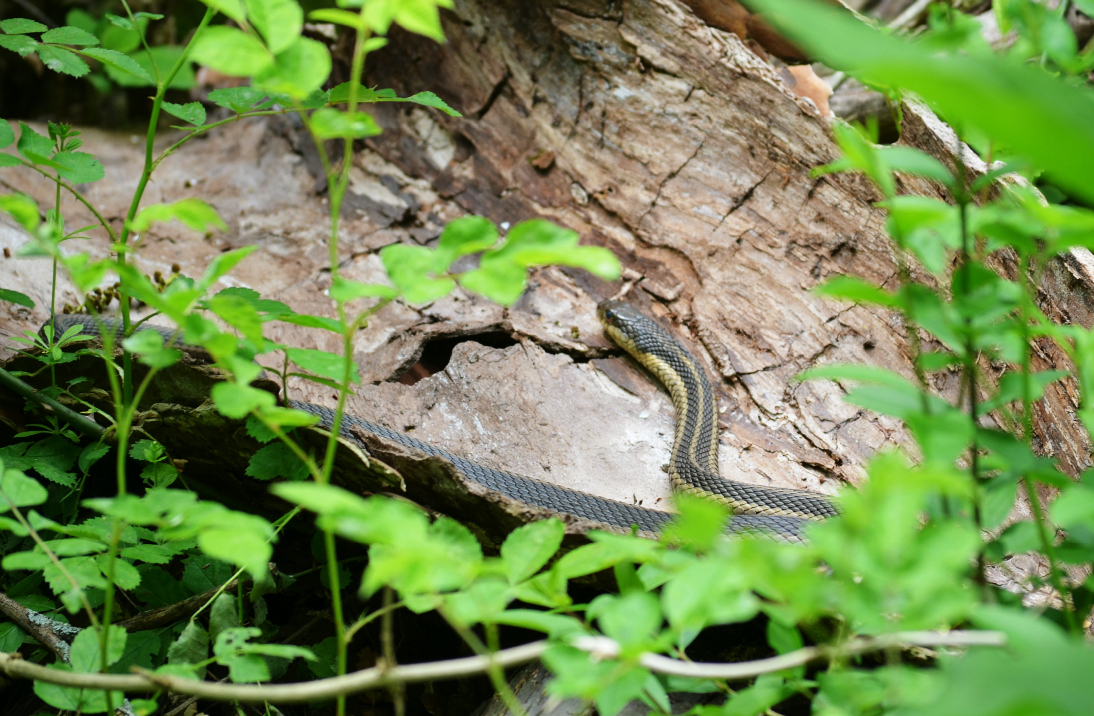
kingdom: Animalia
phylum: Chordata
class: Squamata
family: Colubridae
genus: Thamnophis
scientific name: Thamnophis sirtalis
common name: Common garter snake
